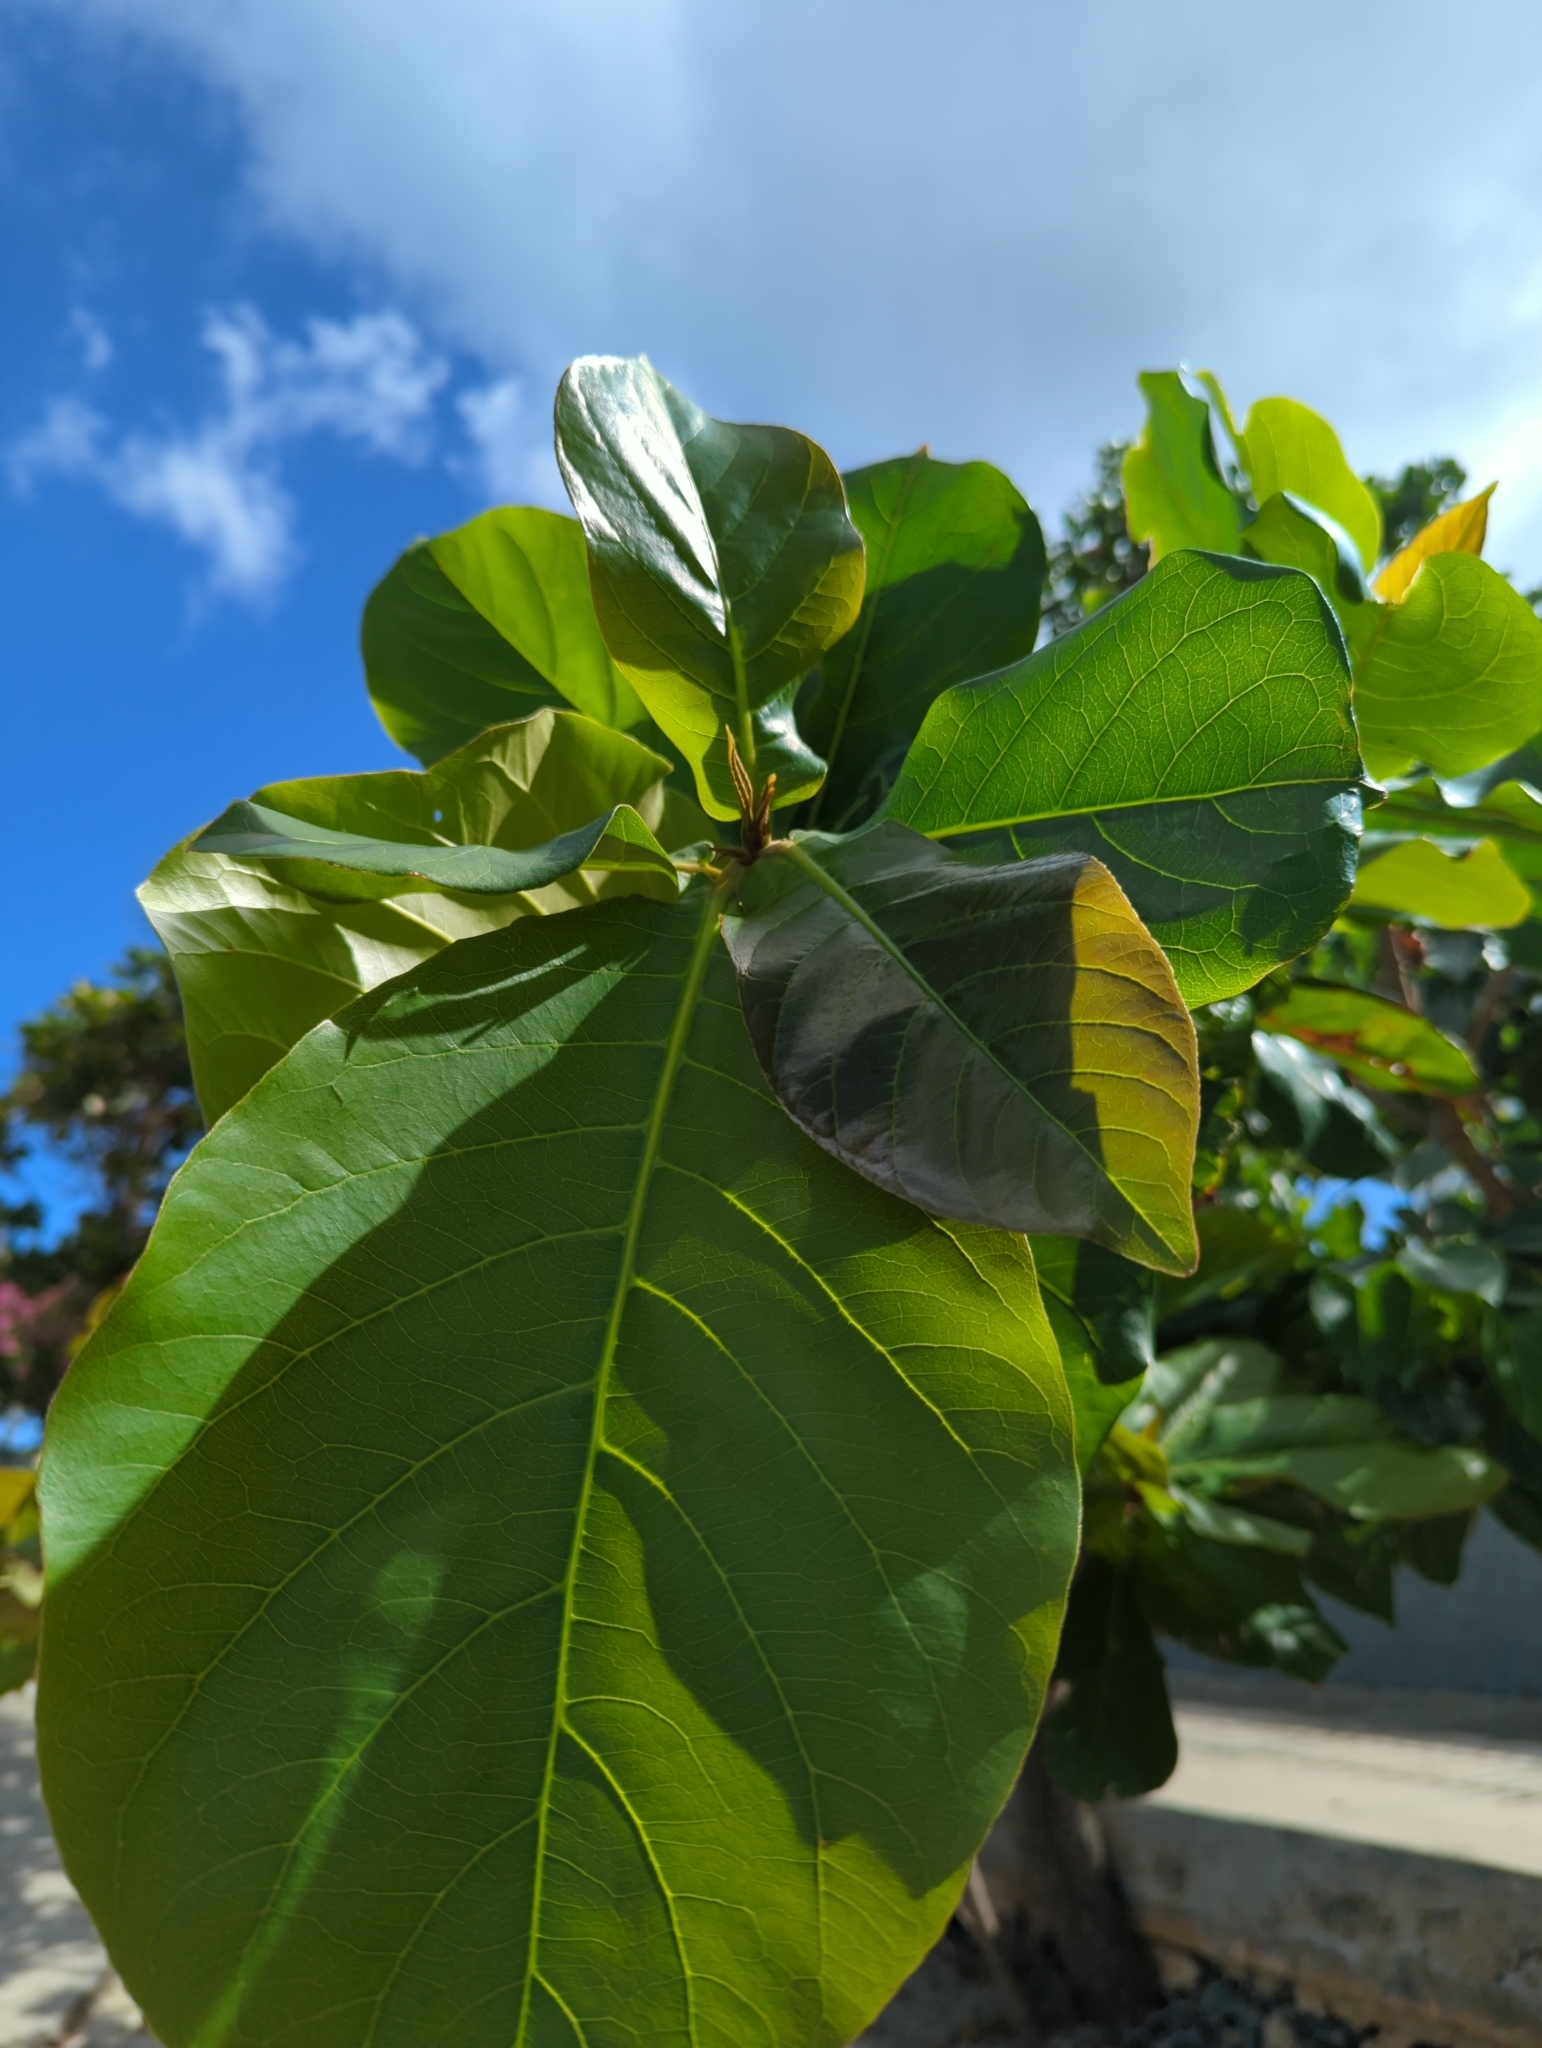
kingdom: Plantae
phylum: Tracheophyta
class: Magnoliopsida
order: Myrtales
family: Combretaceae
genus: Terminalia
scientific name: Terminalia catappa
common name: Tropical almond
